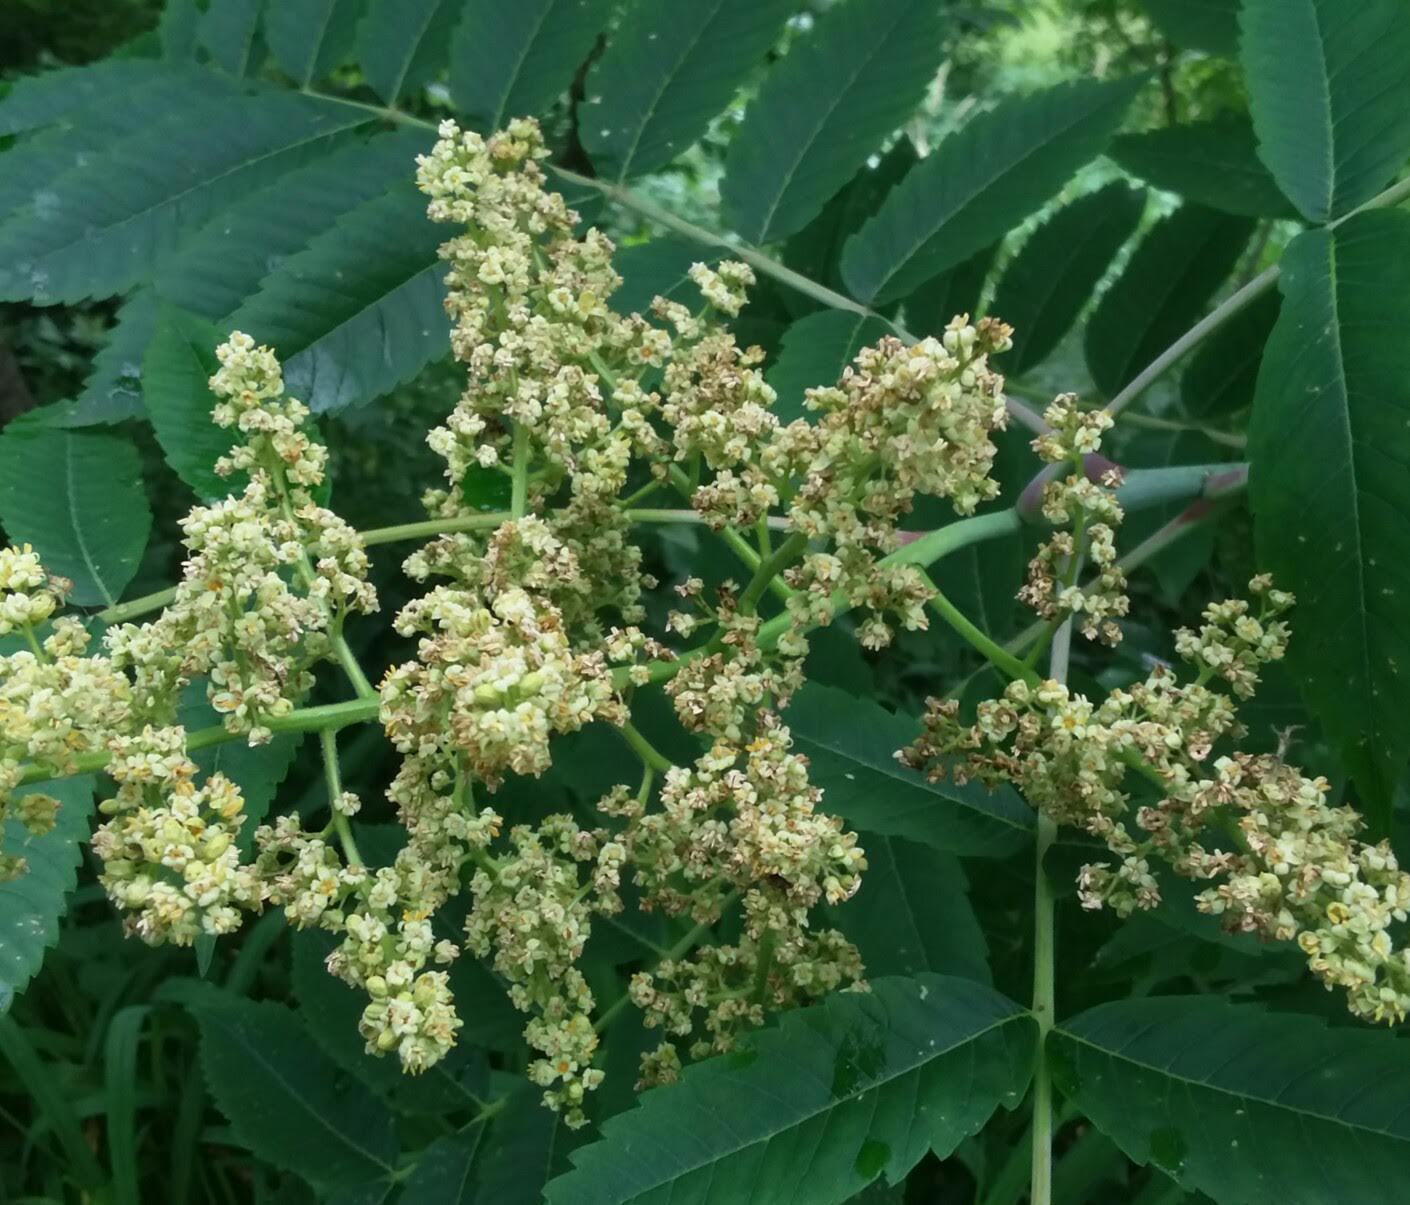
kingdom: Plantae
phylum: Tracheophyta
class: Magnoliopsida
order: Sapindales
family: Anacardiaceae
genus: Rhus
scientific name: Rhus glabra
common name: Scarlet sumac
